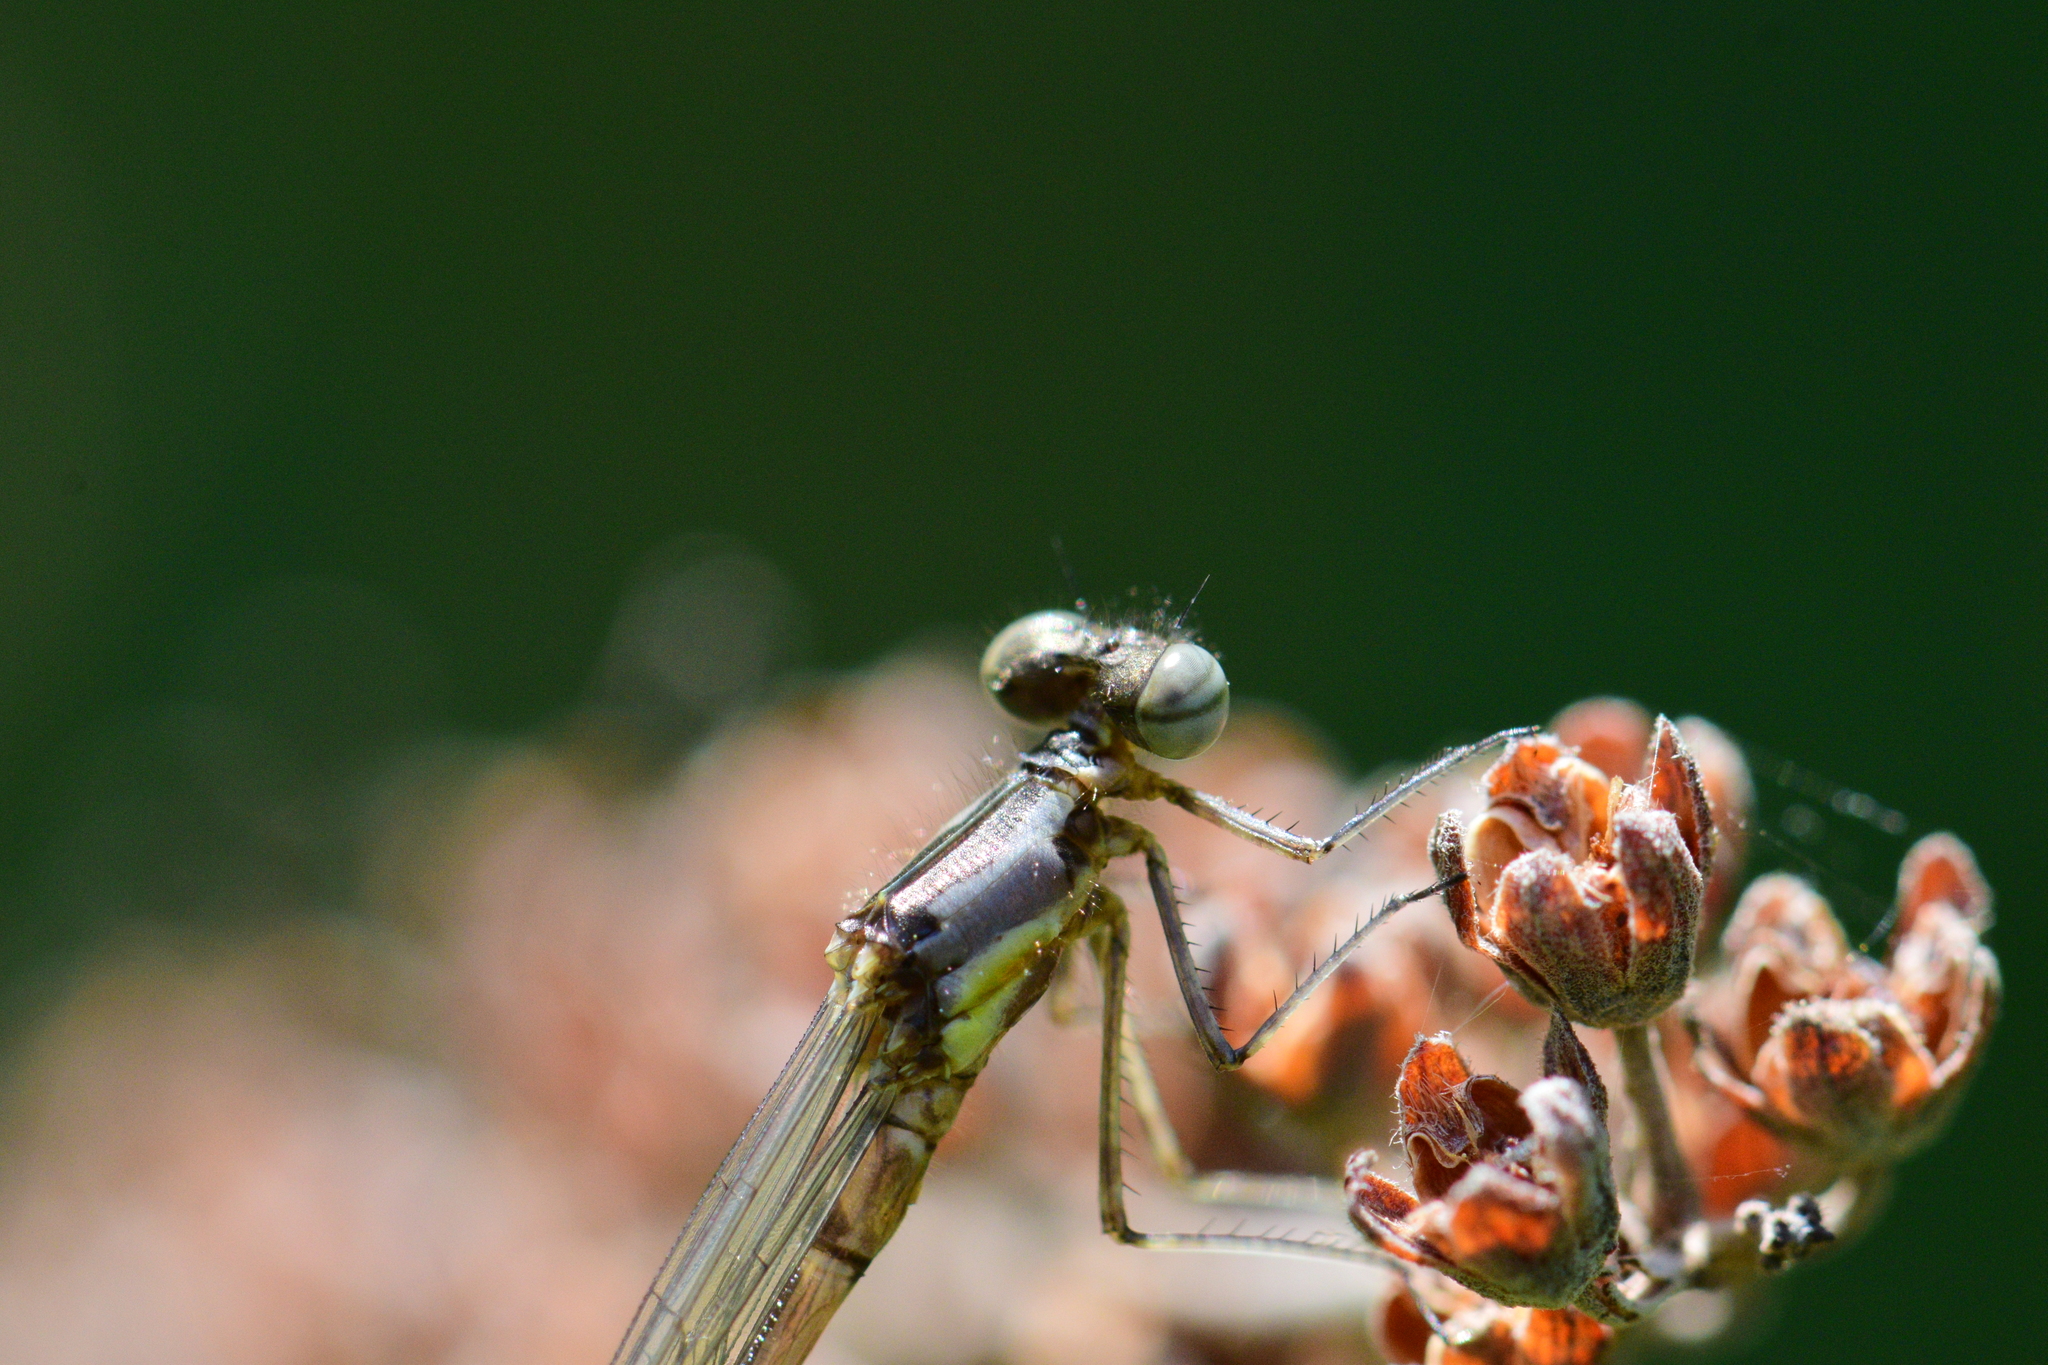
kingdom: Animalia
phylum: Arthropoda
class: Insecta
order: Odonata
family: Coenagrionidae
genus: Chromagrion
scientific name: Chromagrion conditum
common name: Aurora damsel
